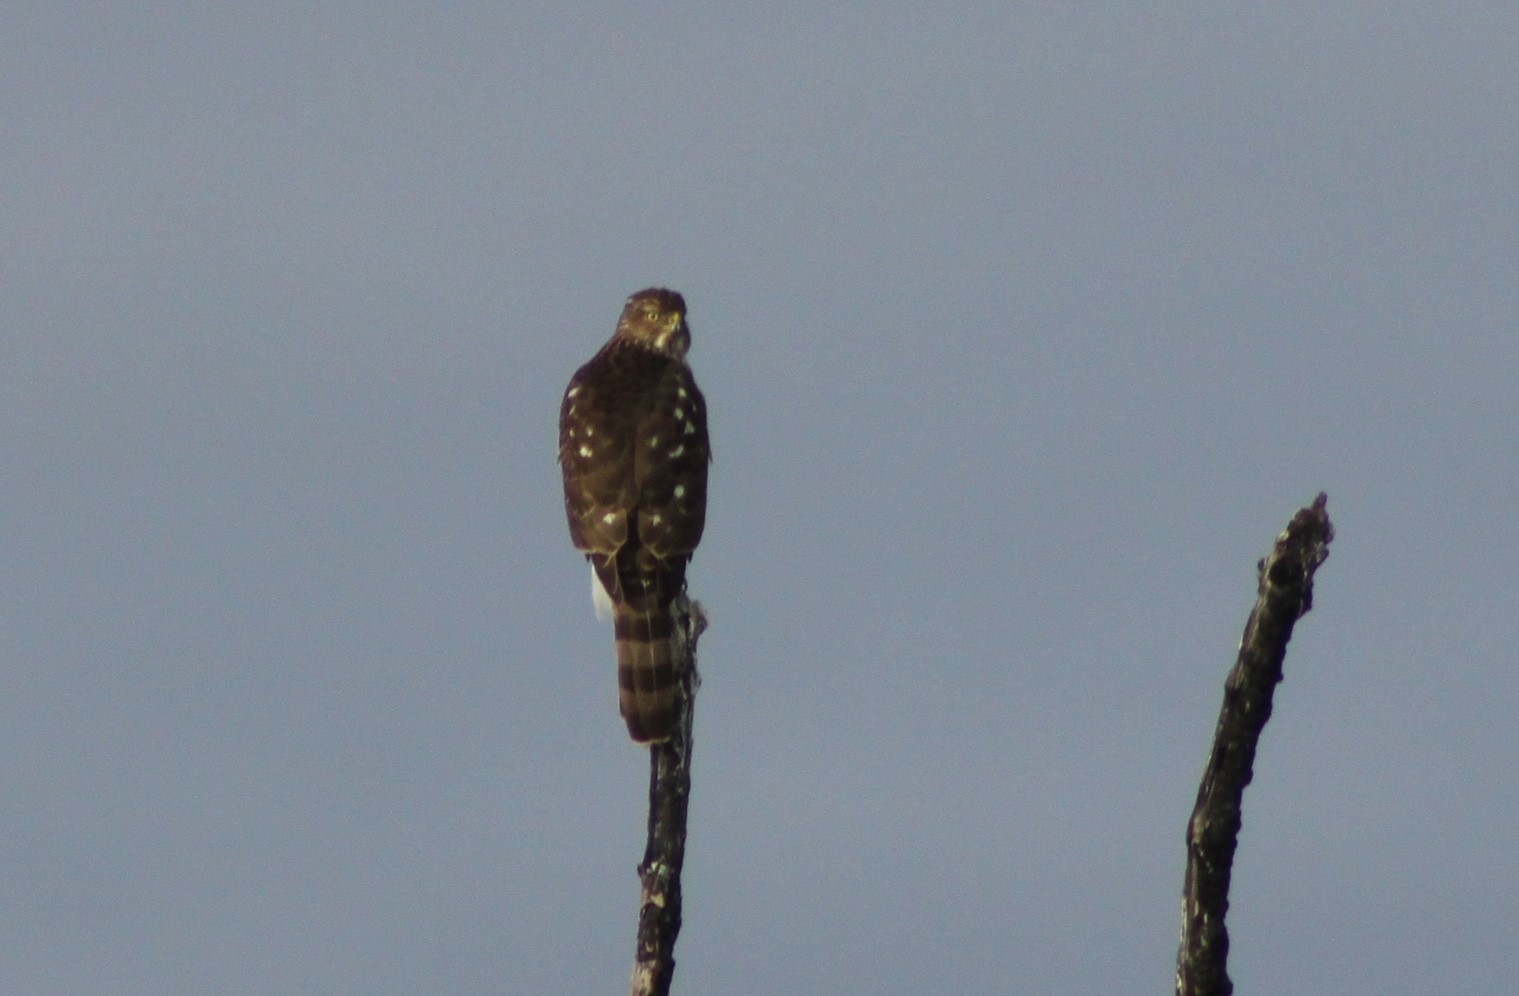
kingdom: Animalia
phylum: Chordata
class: Aves
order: Accipitriformes
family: Accipitridae
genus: Accipiter
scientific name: Accipiter cooperii
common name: Cooper's hawk
